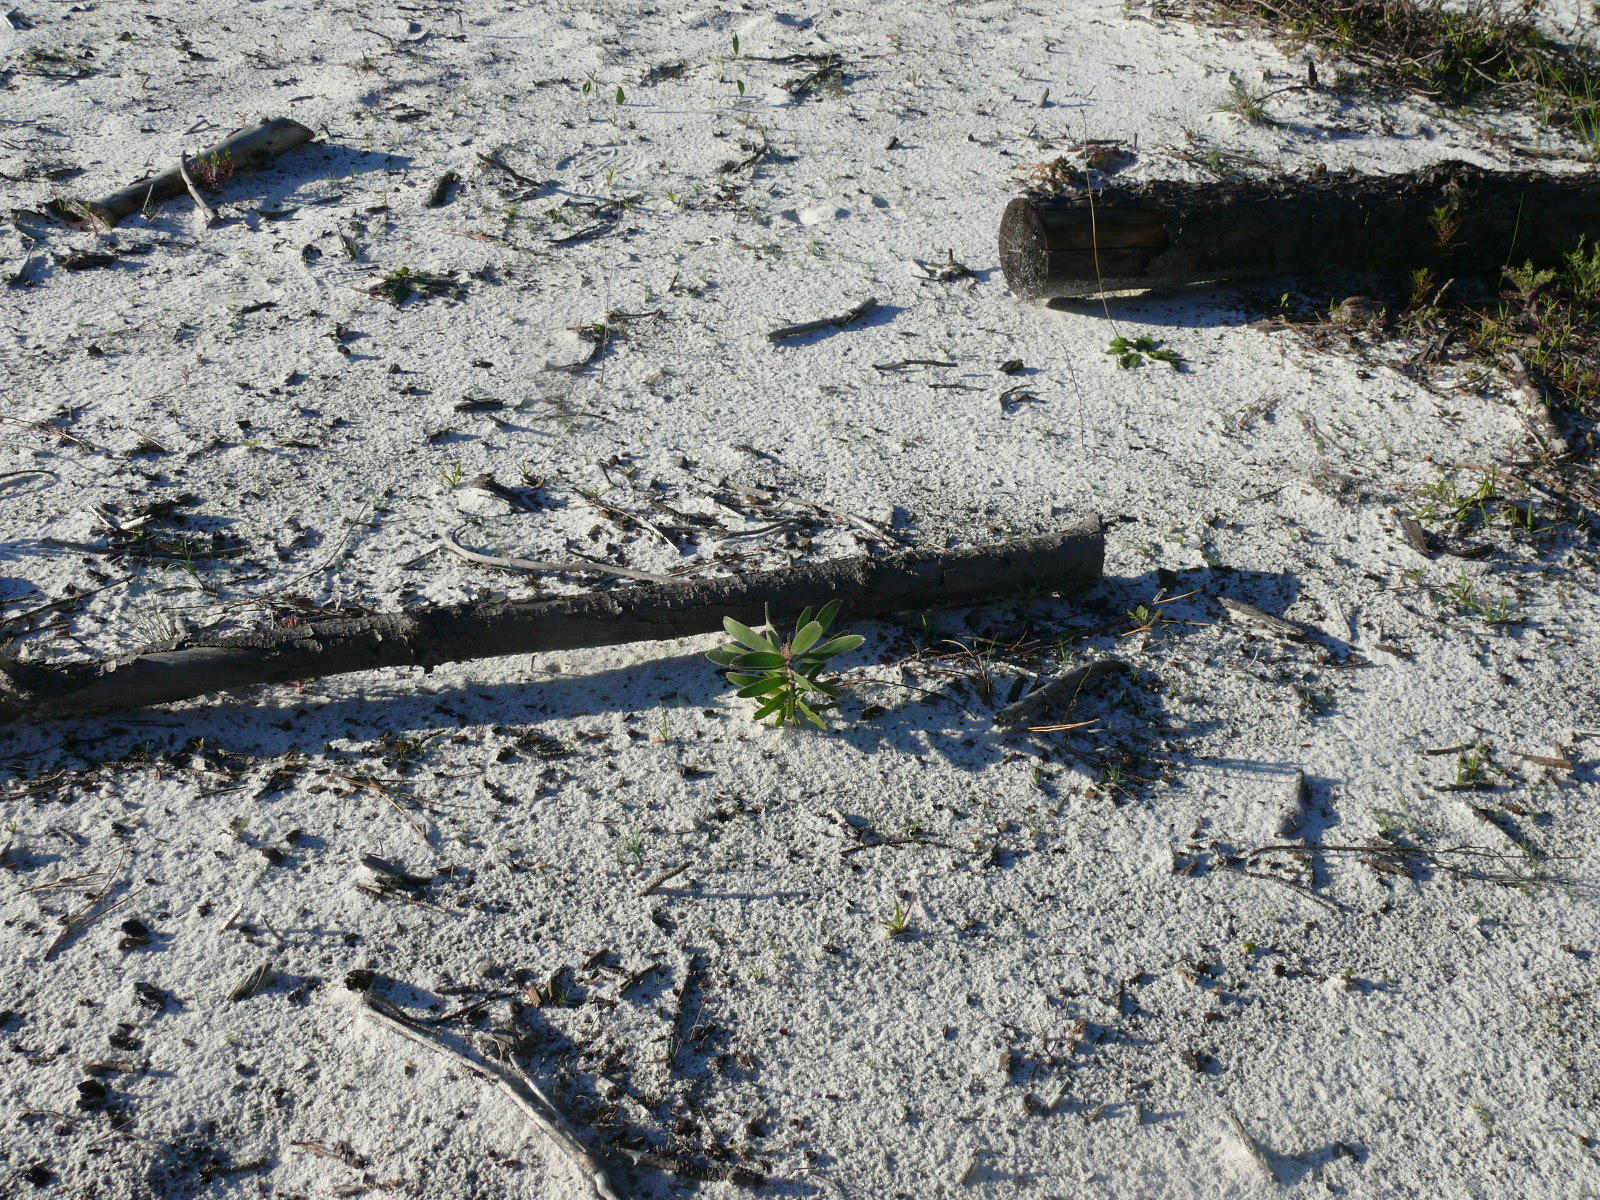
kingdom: Plantae
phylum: Tracheophyta
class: Magnoliopsida
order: Proteales
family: Proteaceae
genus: Leucadendron
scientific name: Leucadendron laureolum
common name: Golden sunshinebush
